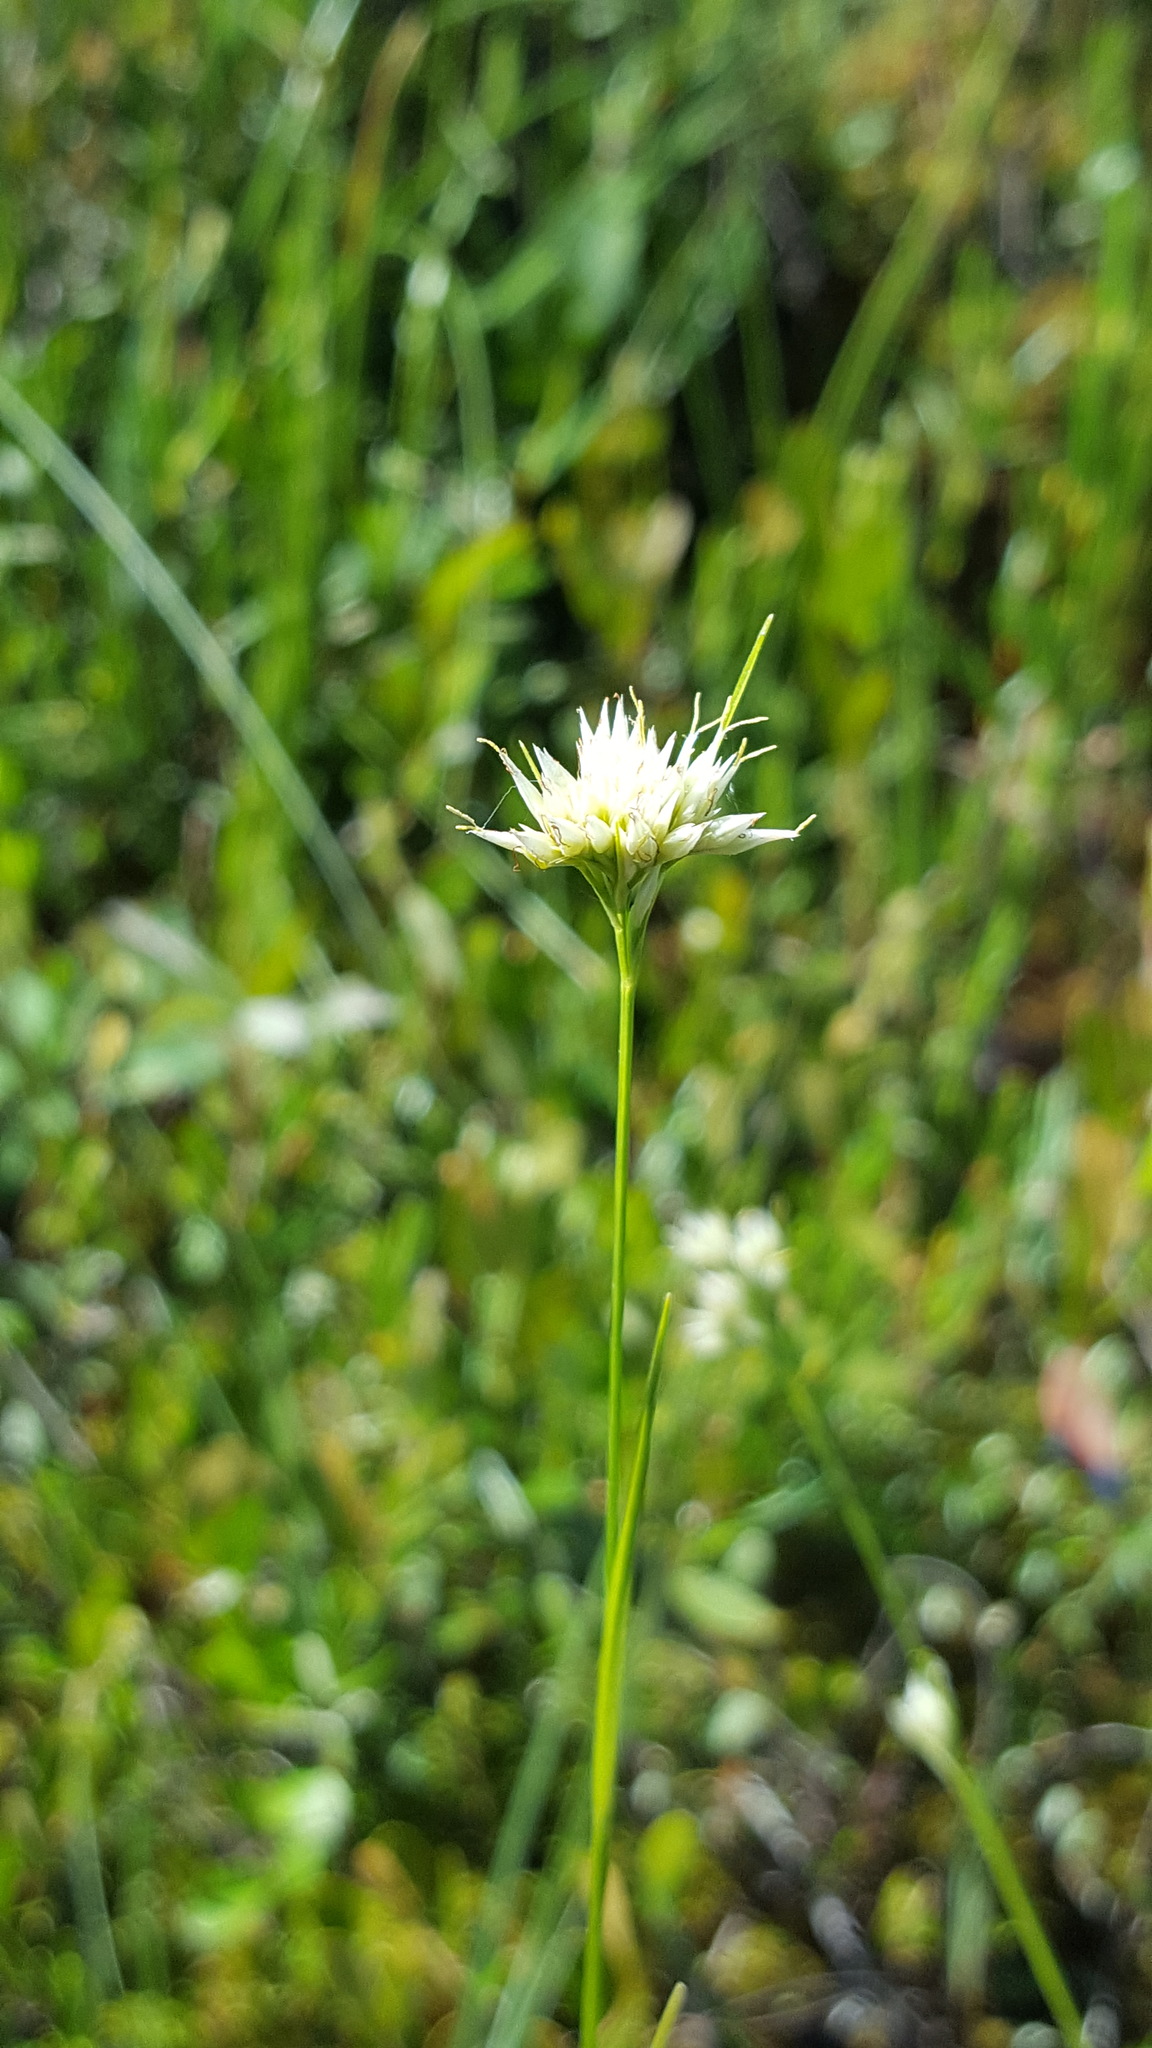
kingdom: Plantae
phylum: Tracheophyta
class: Liliopsida
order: Poales
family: Cyperaceae
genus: Rhynchospora
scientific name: Rhynchospora alba
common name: White beak-sedge
